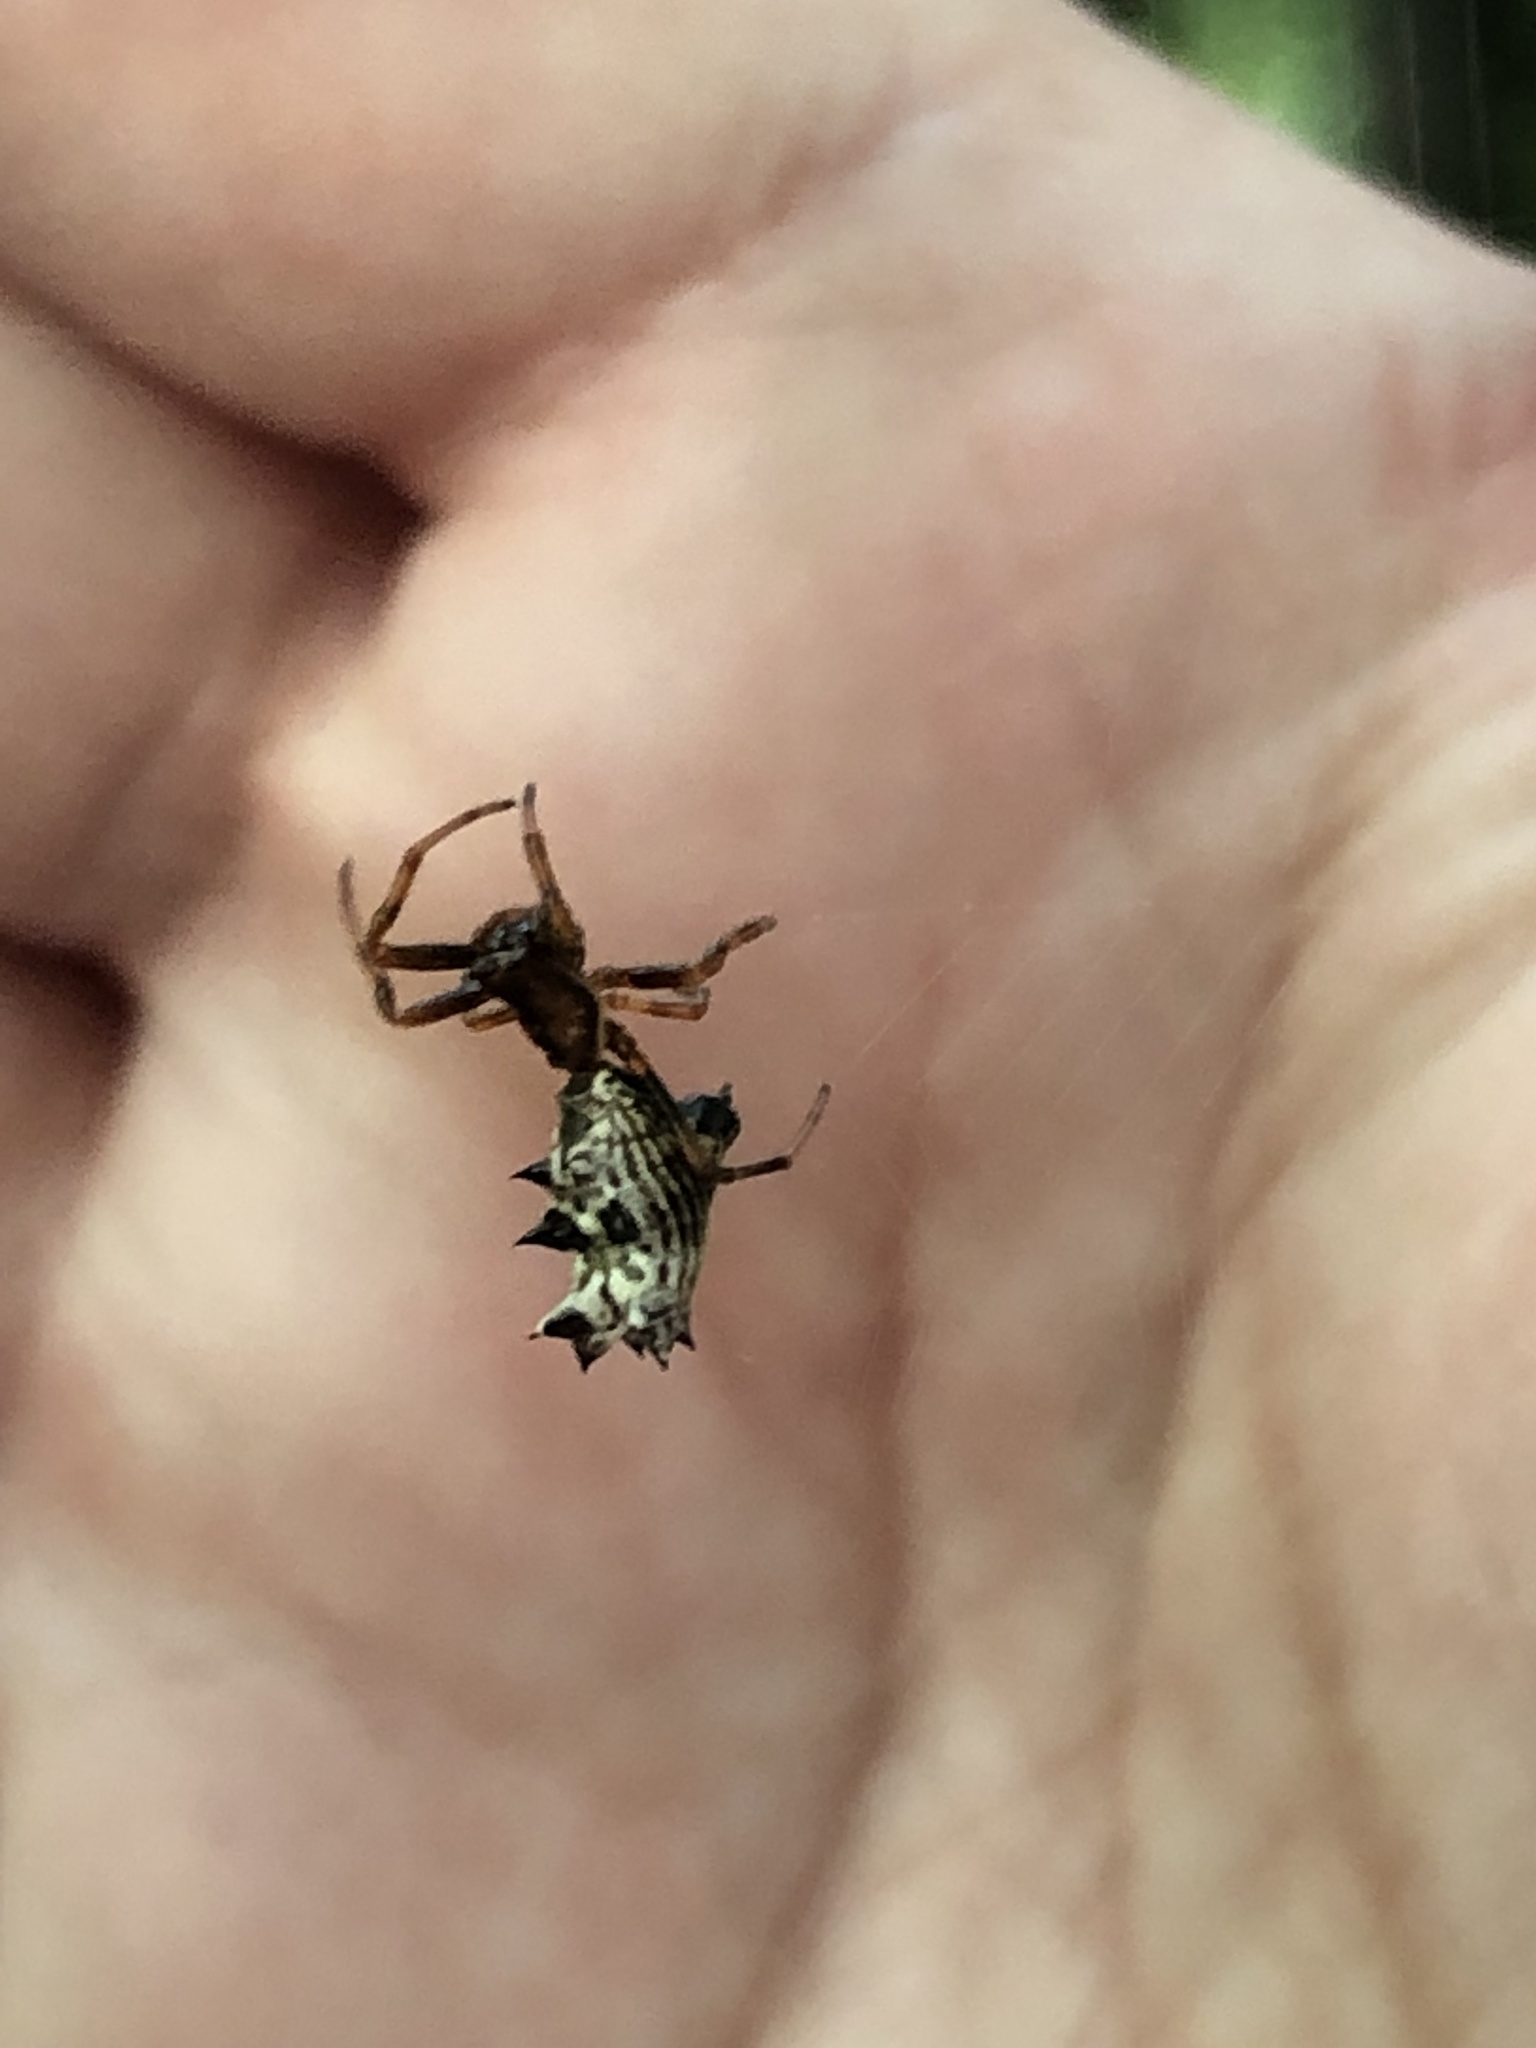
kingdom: Animalia
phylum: Arthropoda
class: Arachnida
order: Araneae
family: Araneidae
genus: Micrathena
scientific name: Micrathena gracilis
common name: Orb weavers
